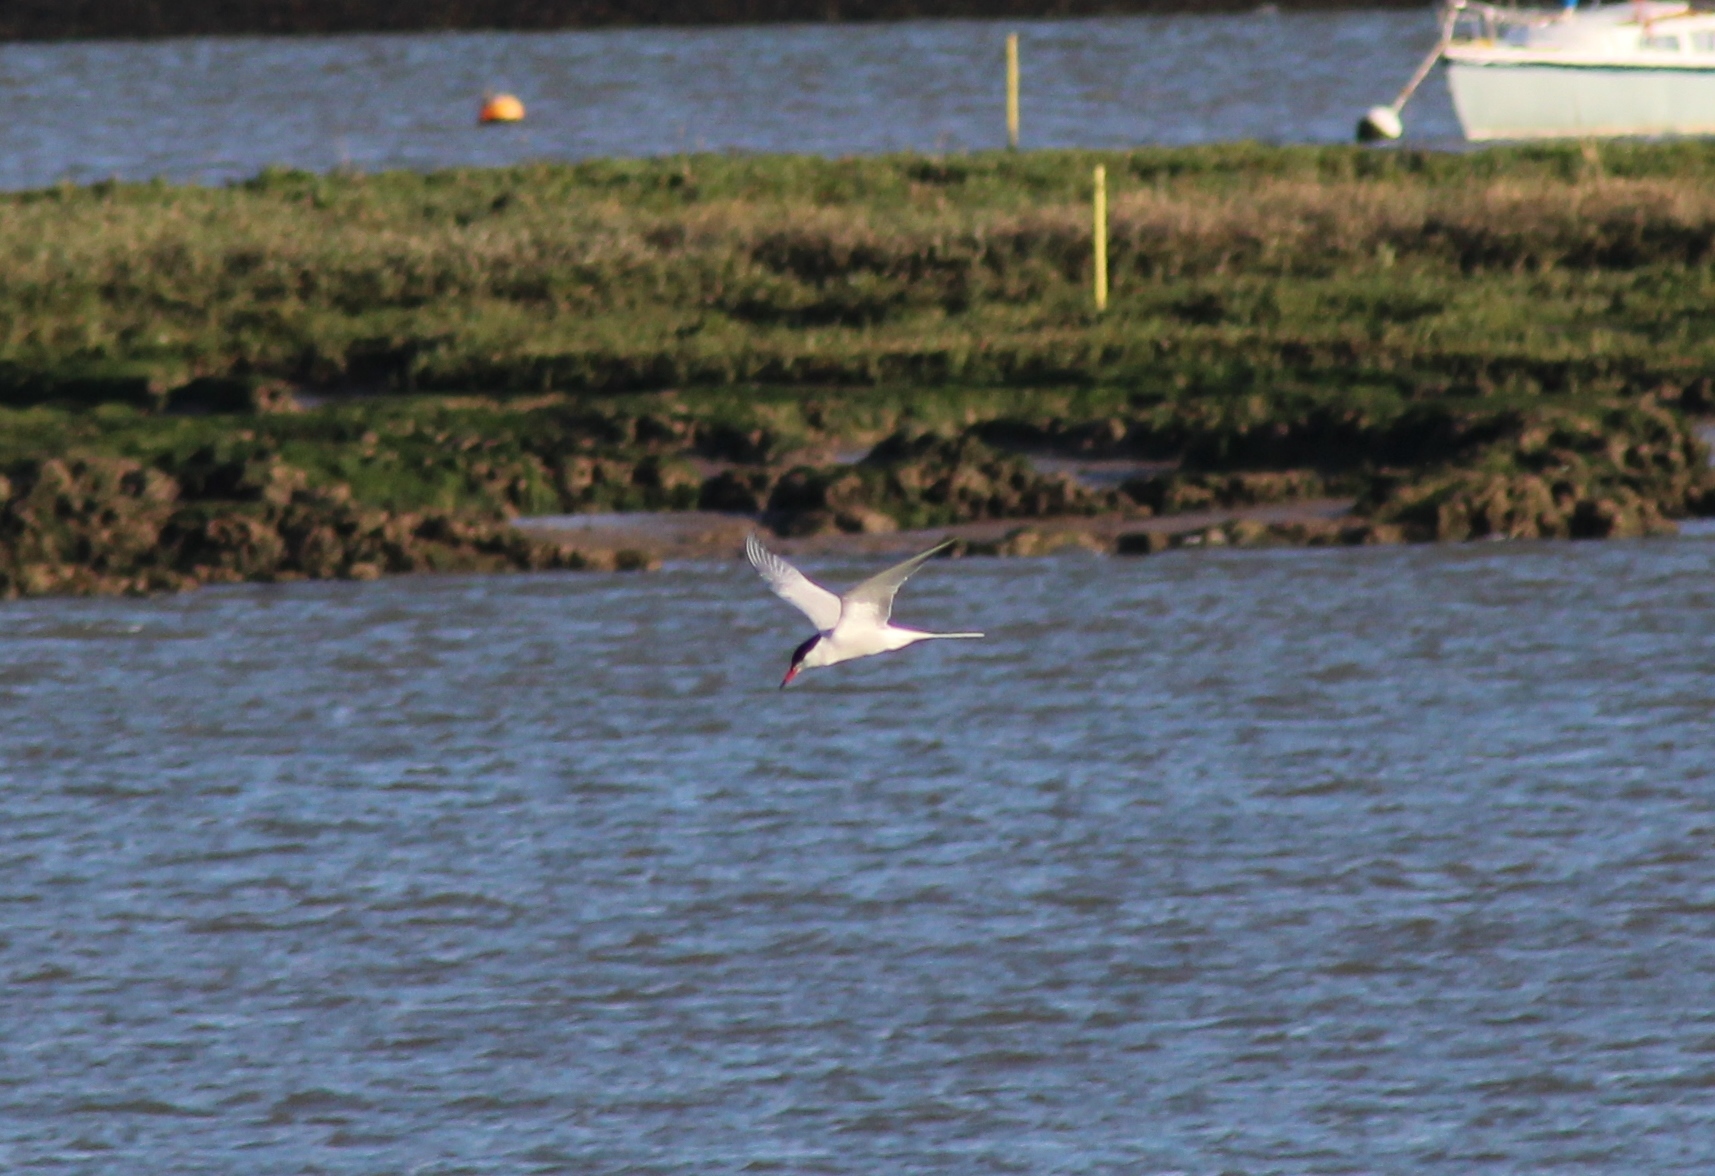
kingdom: Animalia
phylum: Chordata
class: Aves
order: Charadriiformes
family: Laridae
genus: Sterna
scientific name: Sterna hirundo
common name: Common tern
